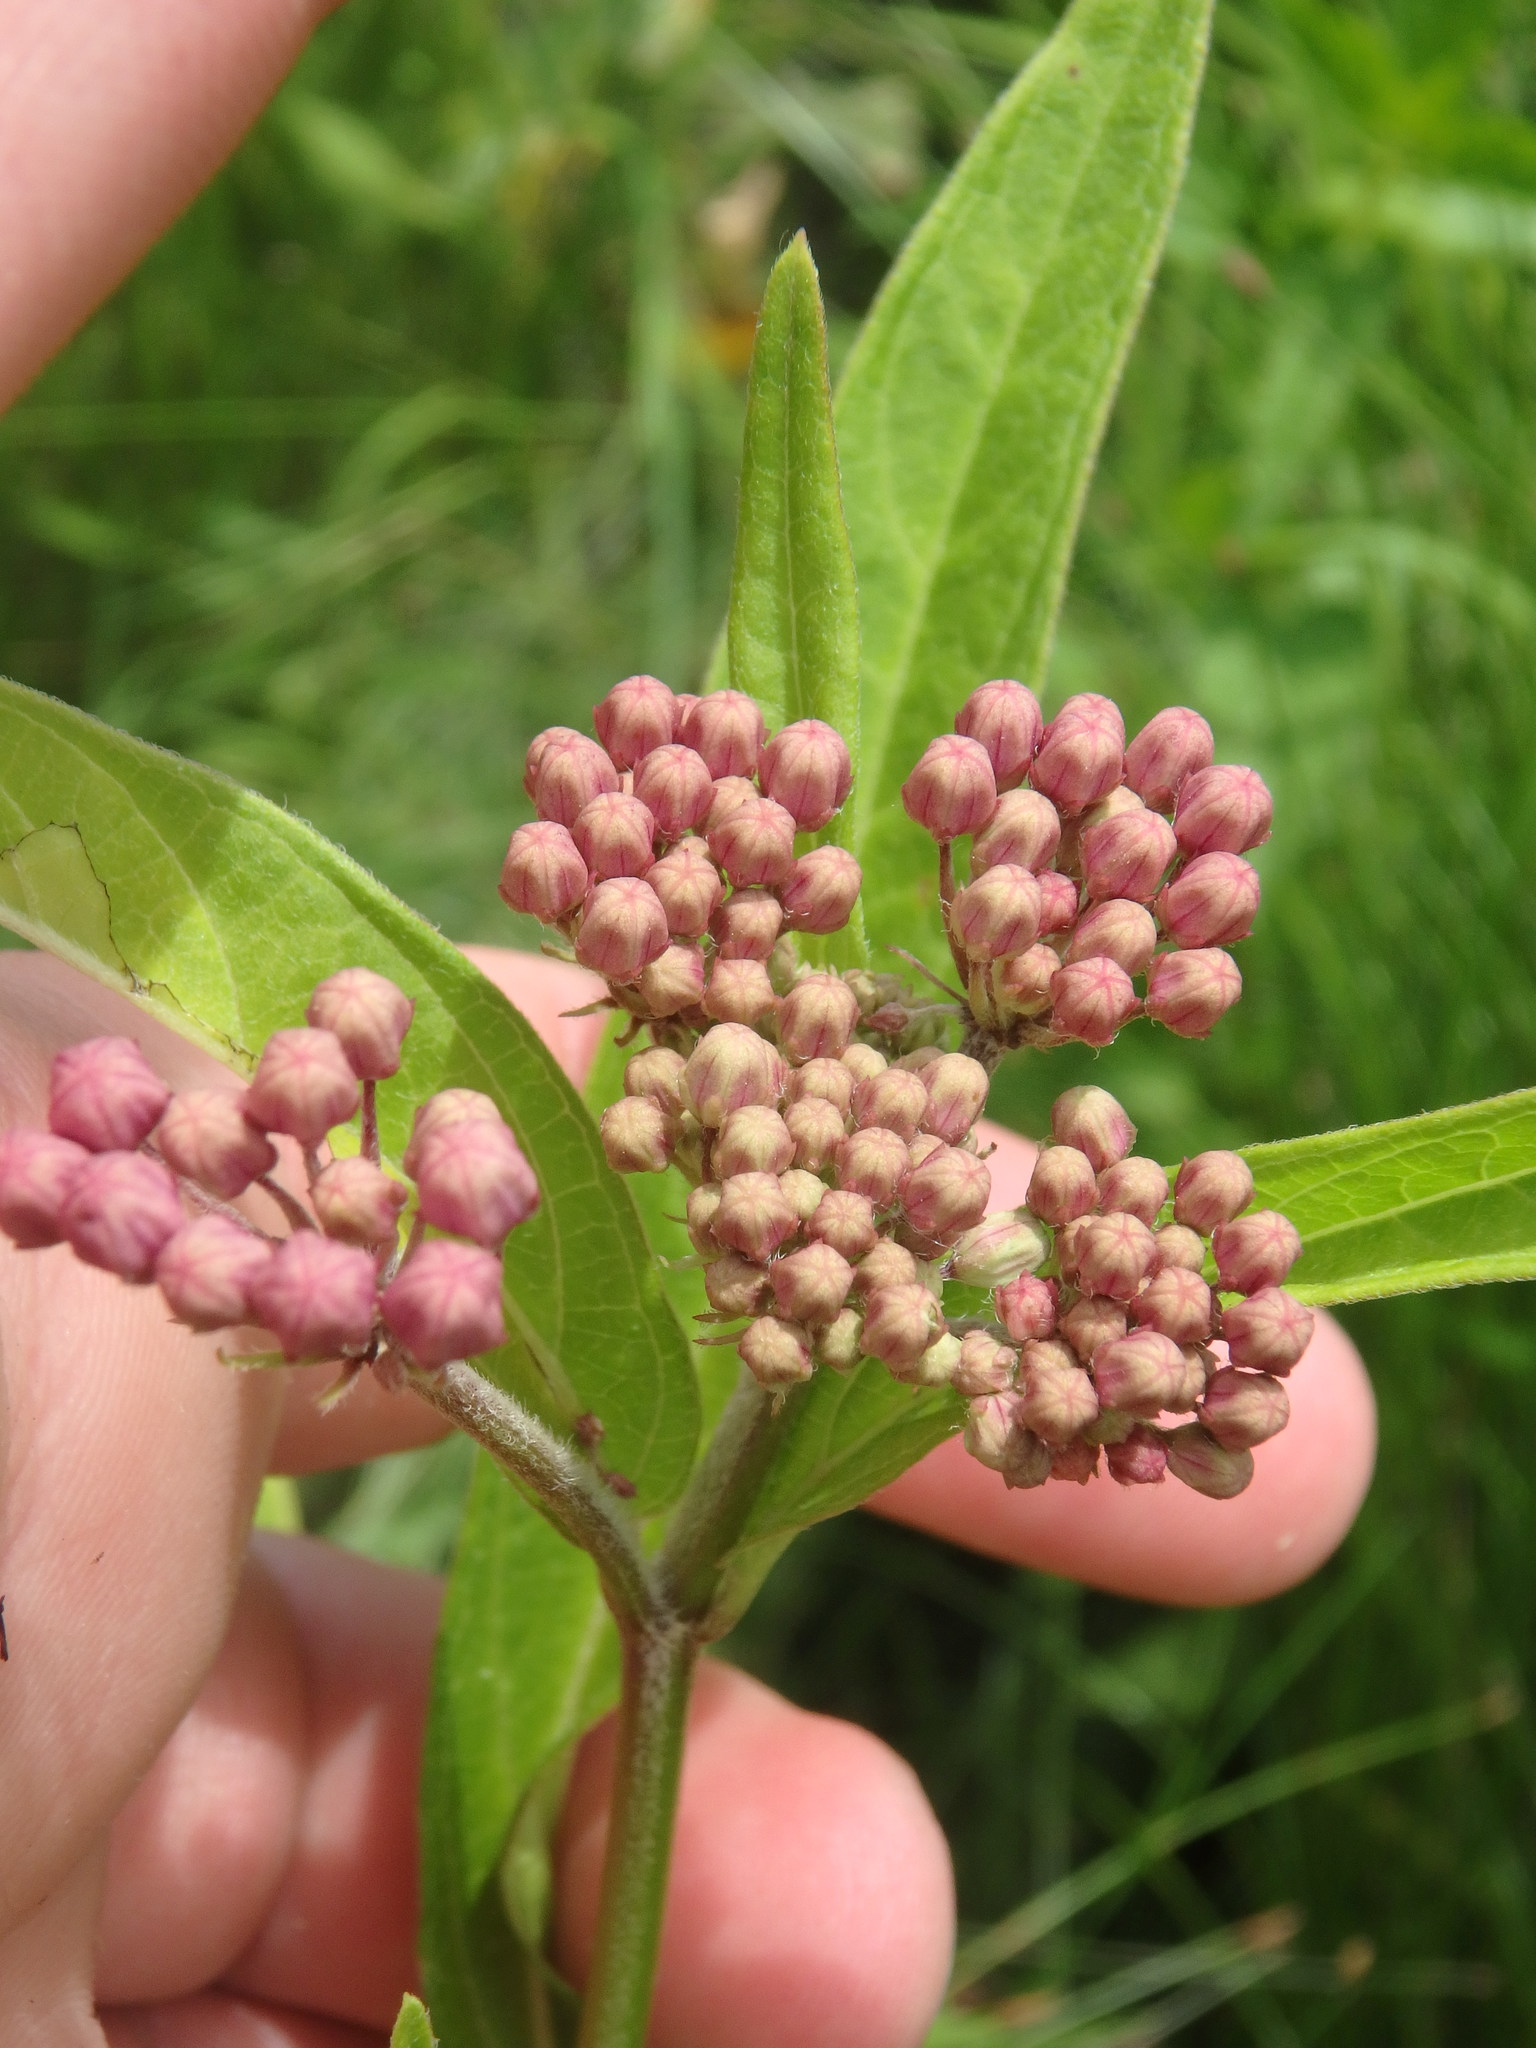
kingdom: Plantae
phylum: Tracheophyta
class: Magnoliopsida
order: Gentianales
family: Apocynaceae
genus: Asclepias
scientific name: Asclepias incarnata
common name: Swamp milkweed
